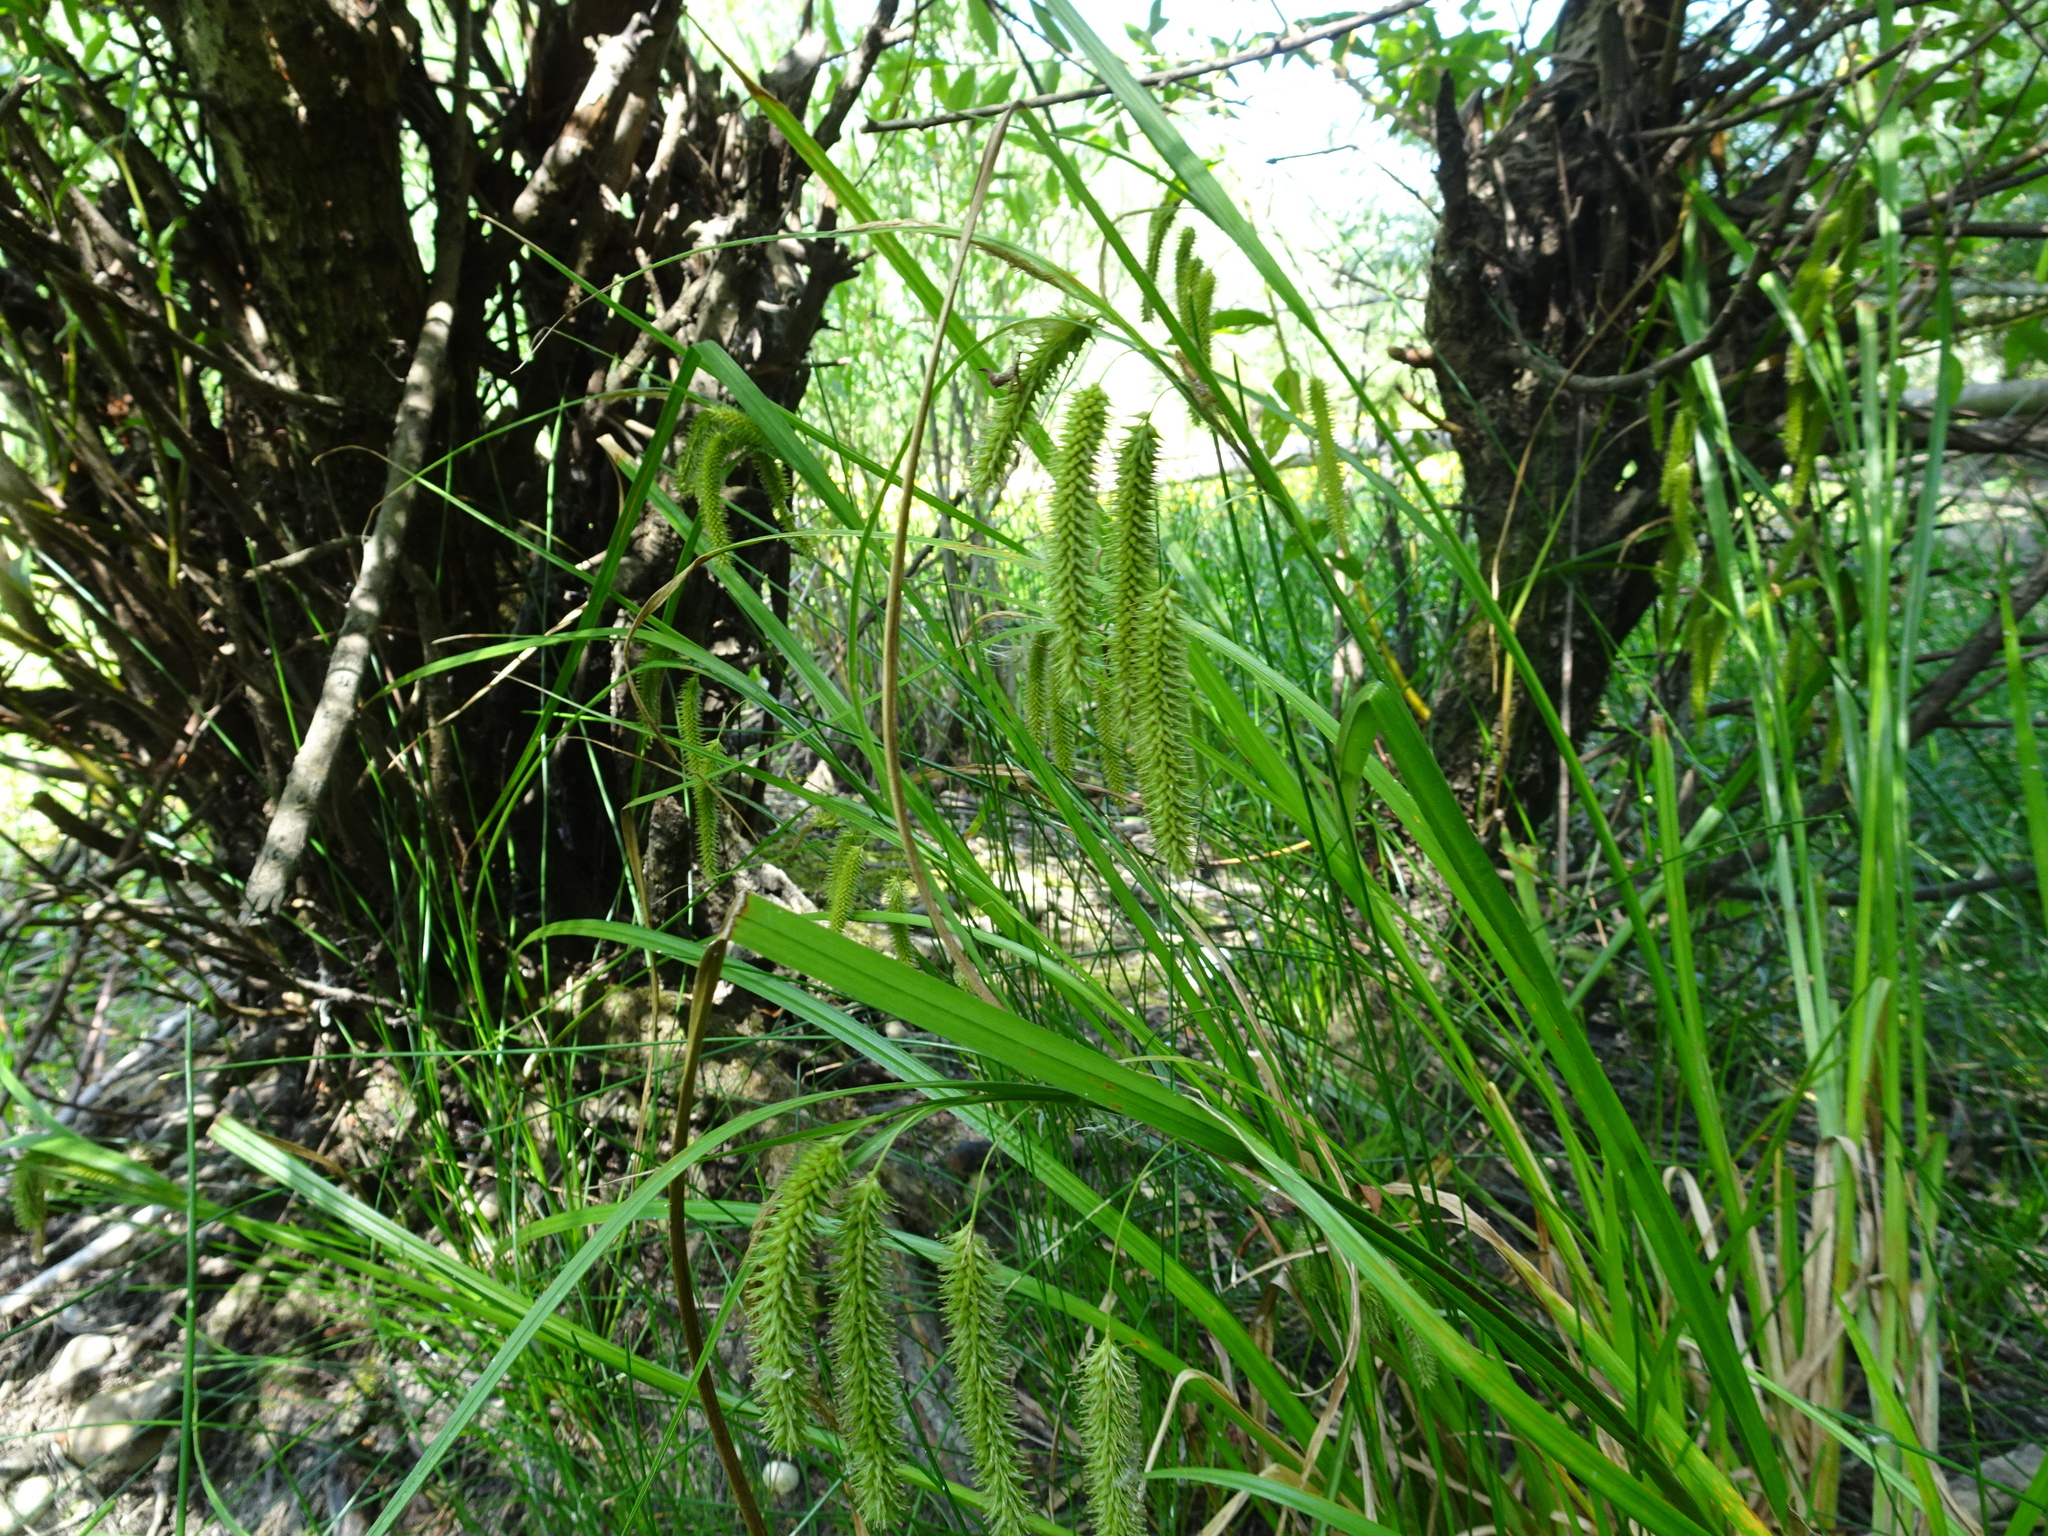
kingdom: Plantae
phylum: Tracheophyta
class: Liliopsida
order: Poales
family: Cyperaceae
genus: Carex
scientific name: Carex pseudocyperus
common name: Cyperus sedge
